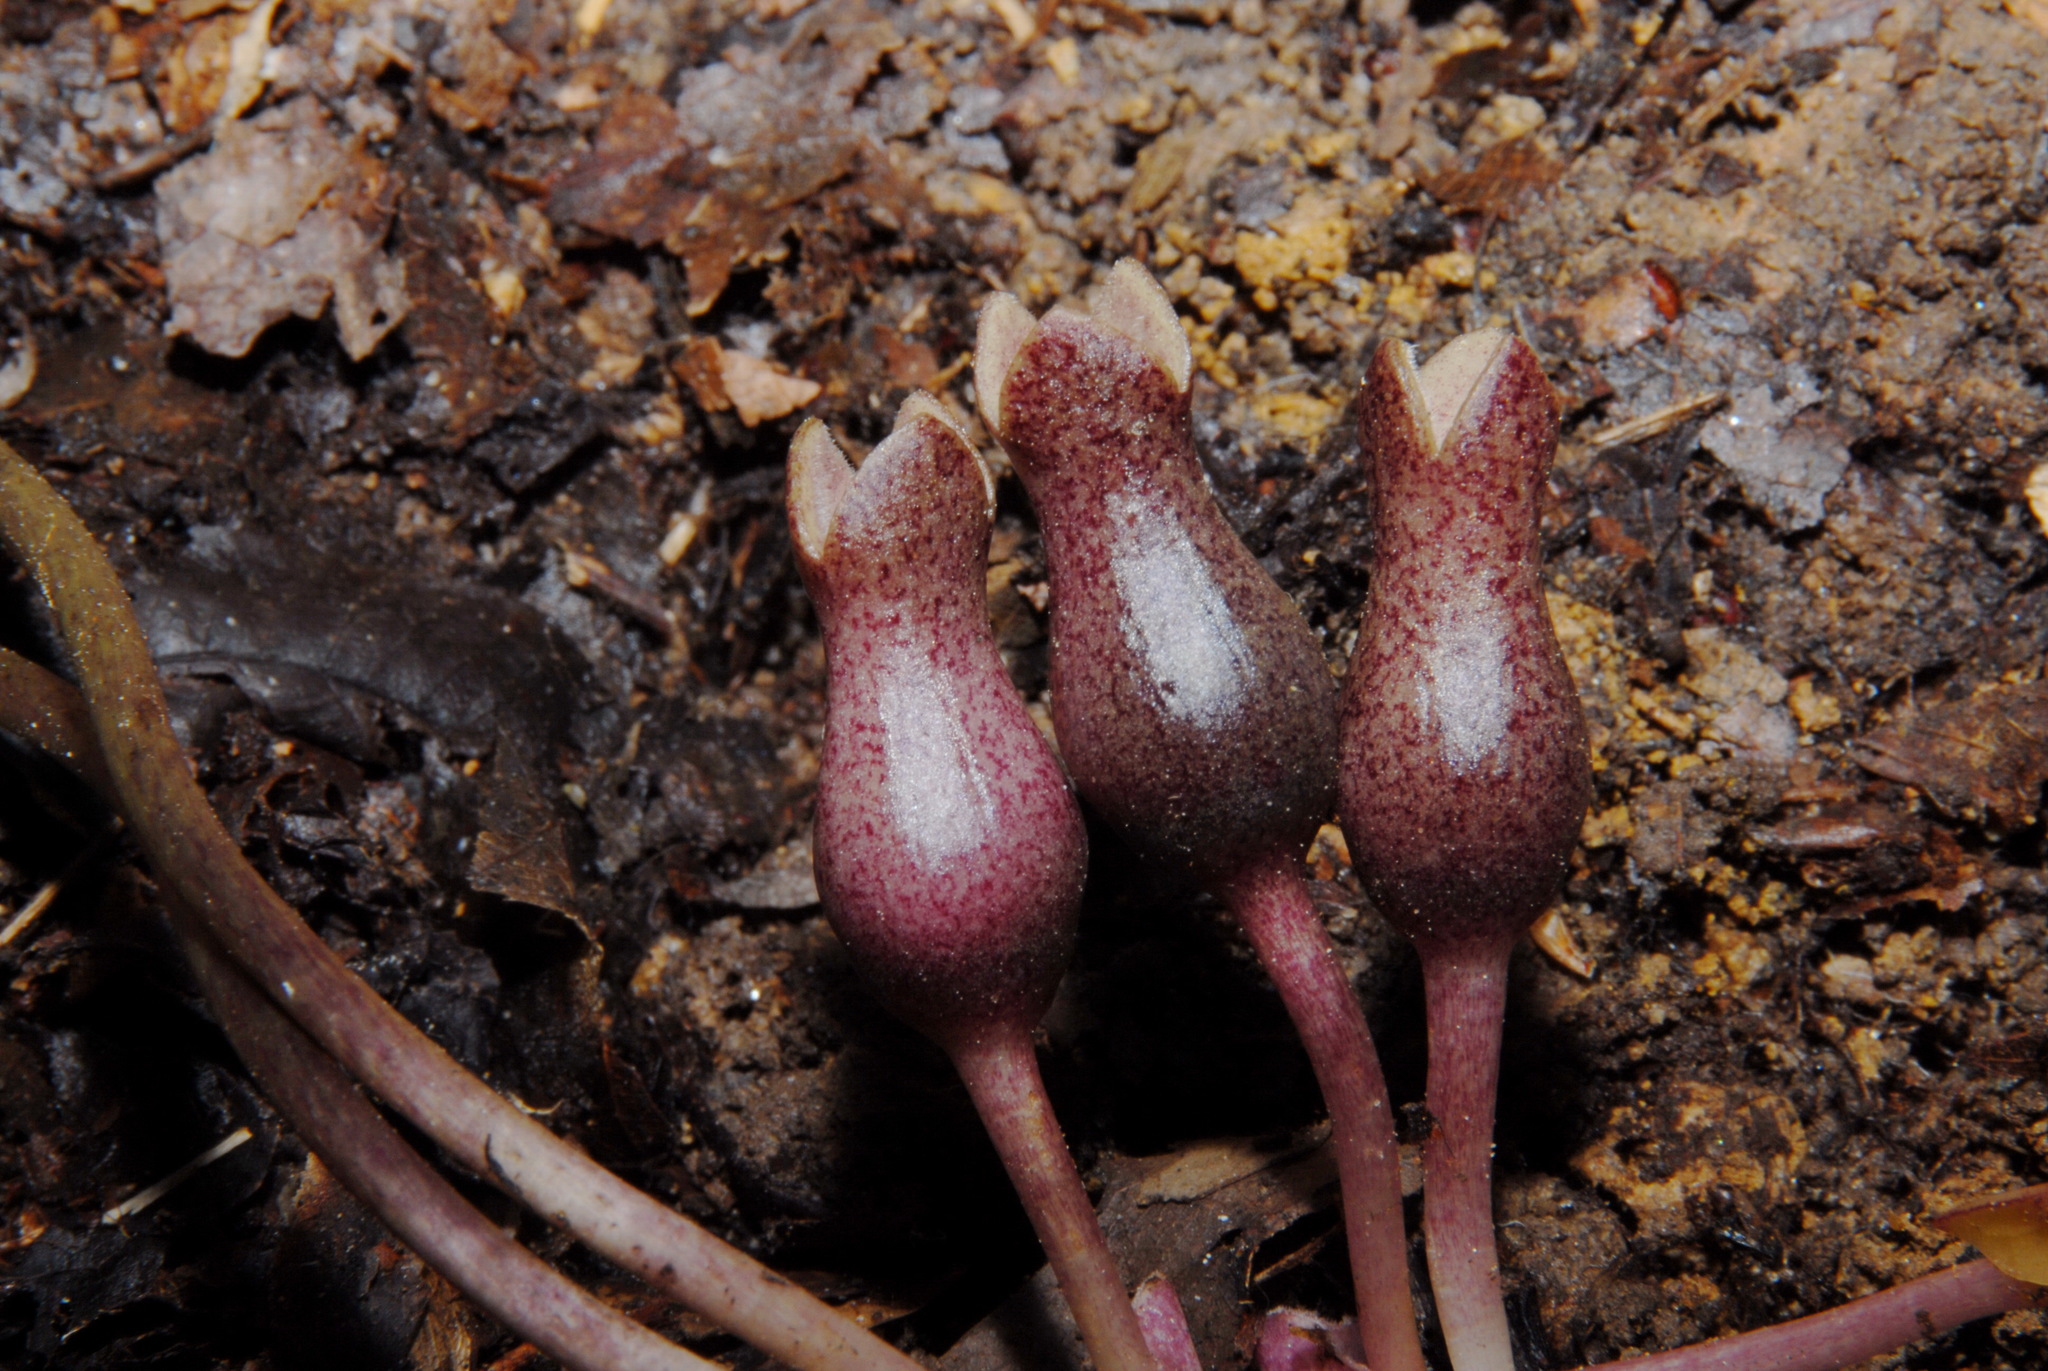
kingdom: Plantae
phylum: Tracheophyta
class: Magnoliopsida
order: Piperales
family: Aristolochiaceae
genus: Hexastylis
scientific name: Hexastylis arifolia
